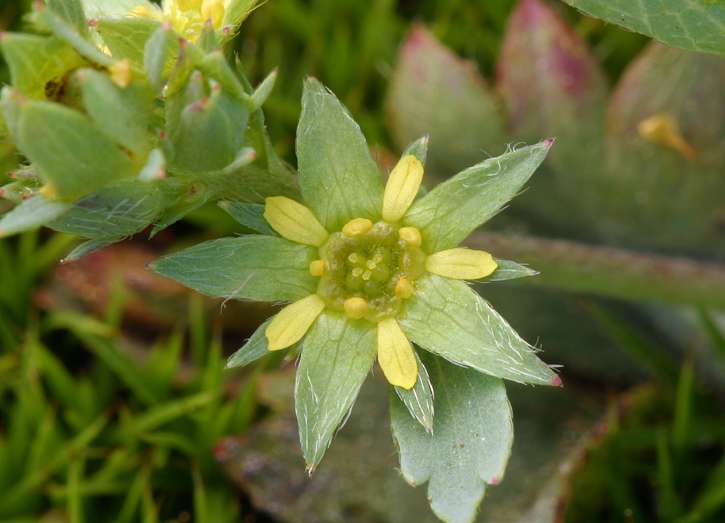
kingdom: Plantae
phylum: Tracheophyta
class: Magnoliopsida
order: Rosales
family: Rosaceae
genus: Sibbaldia
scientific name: Sibbaldia procumbens
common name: Creeping sibbaldia
